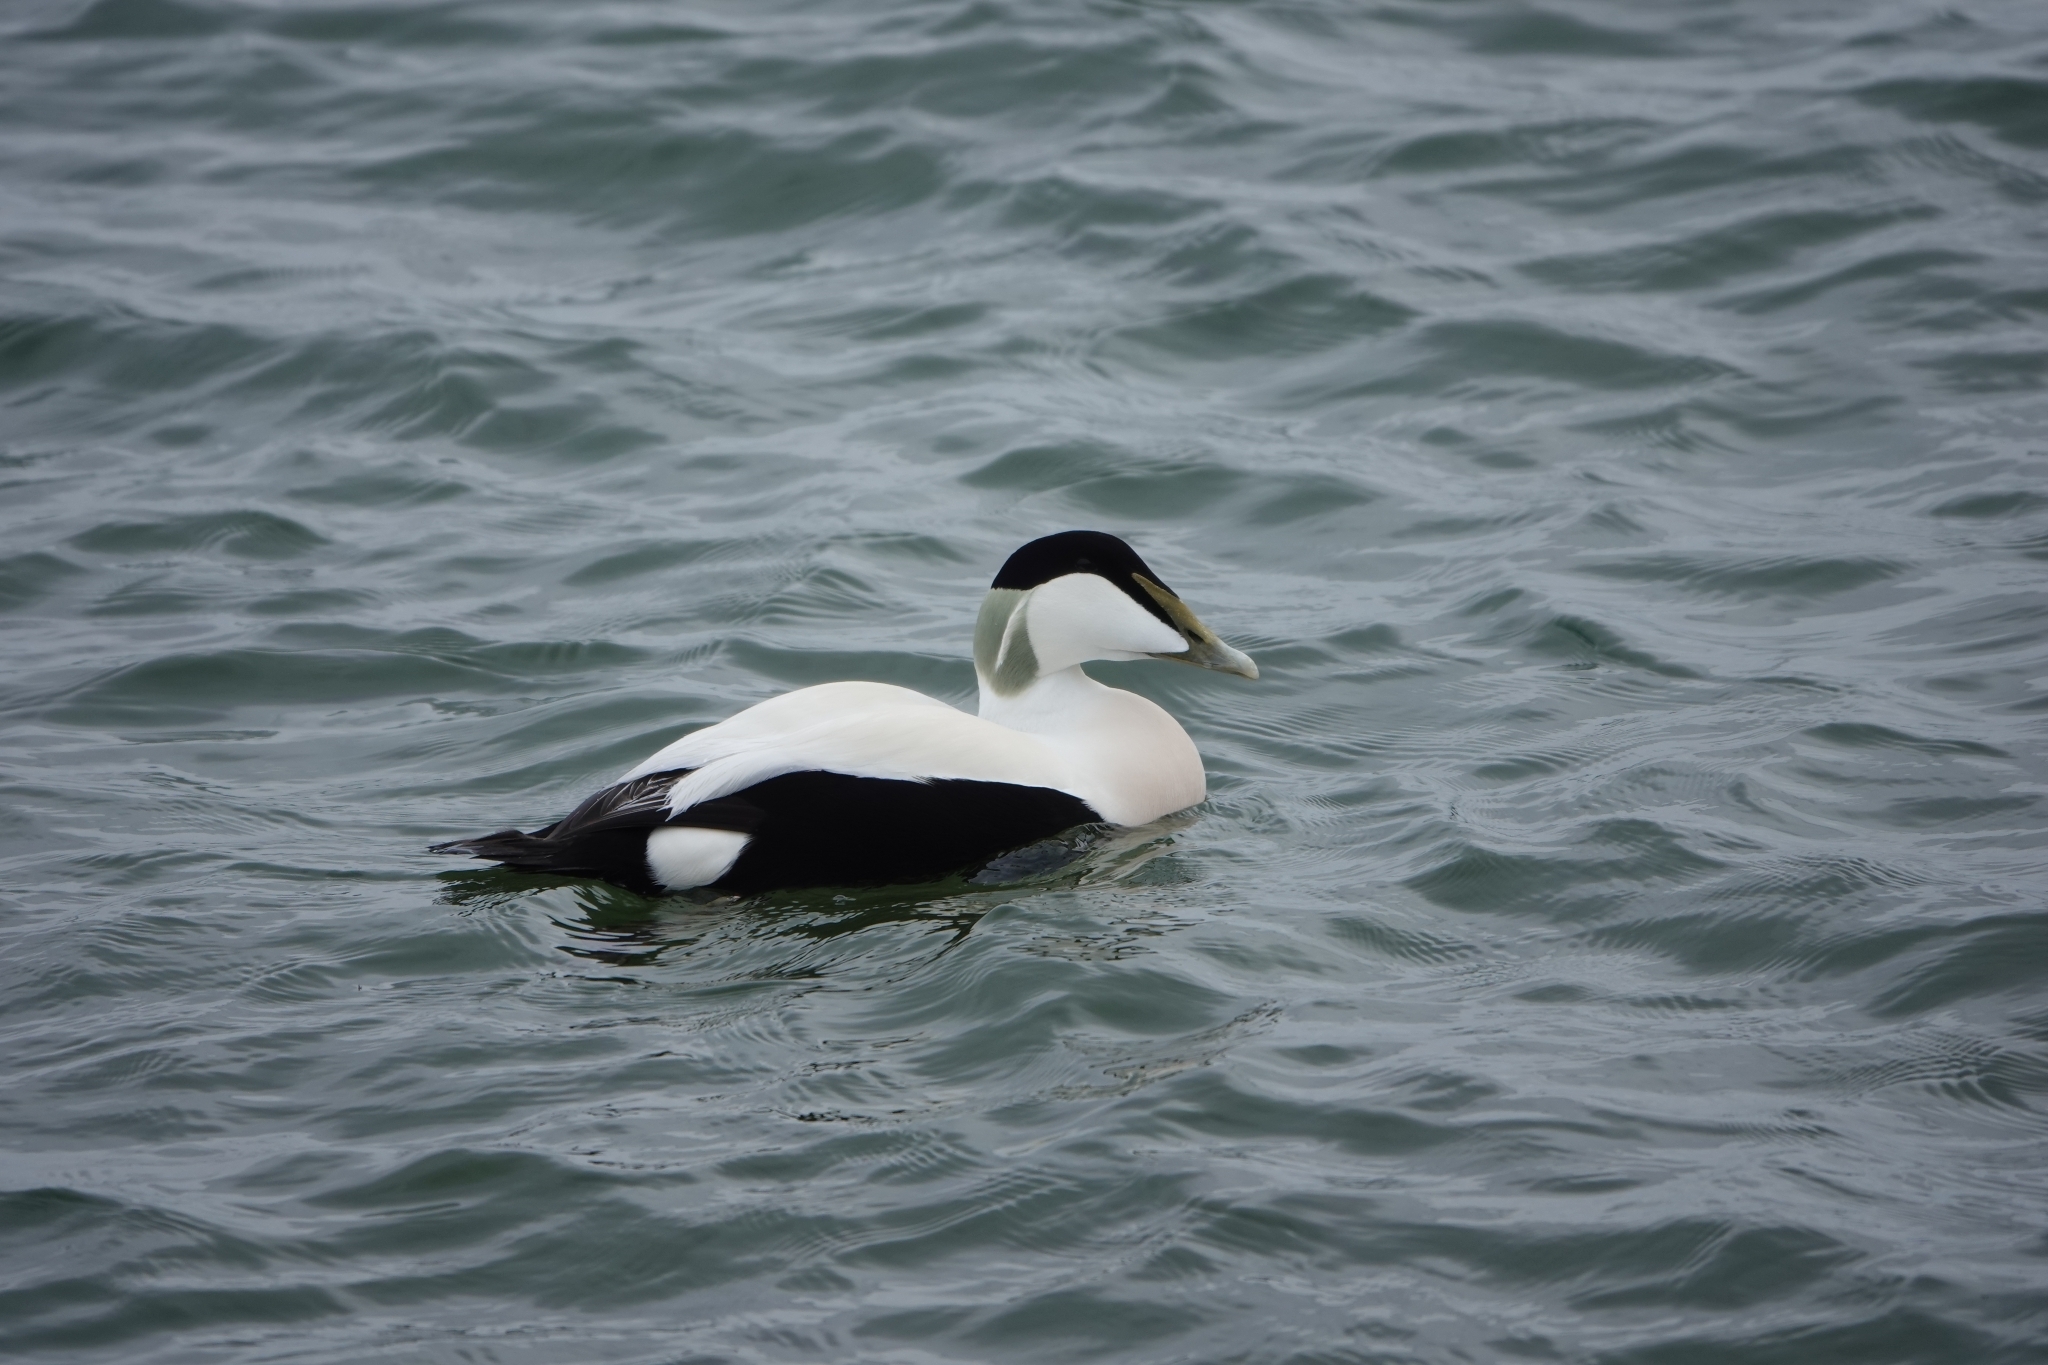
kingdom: Animalia
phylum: Chordata
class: Aves
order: Anseriformes
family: Anatidae
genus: Somateria
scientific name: Somateria mollissima
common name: Common eider
